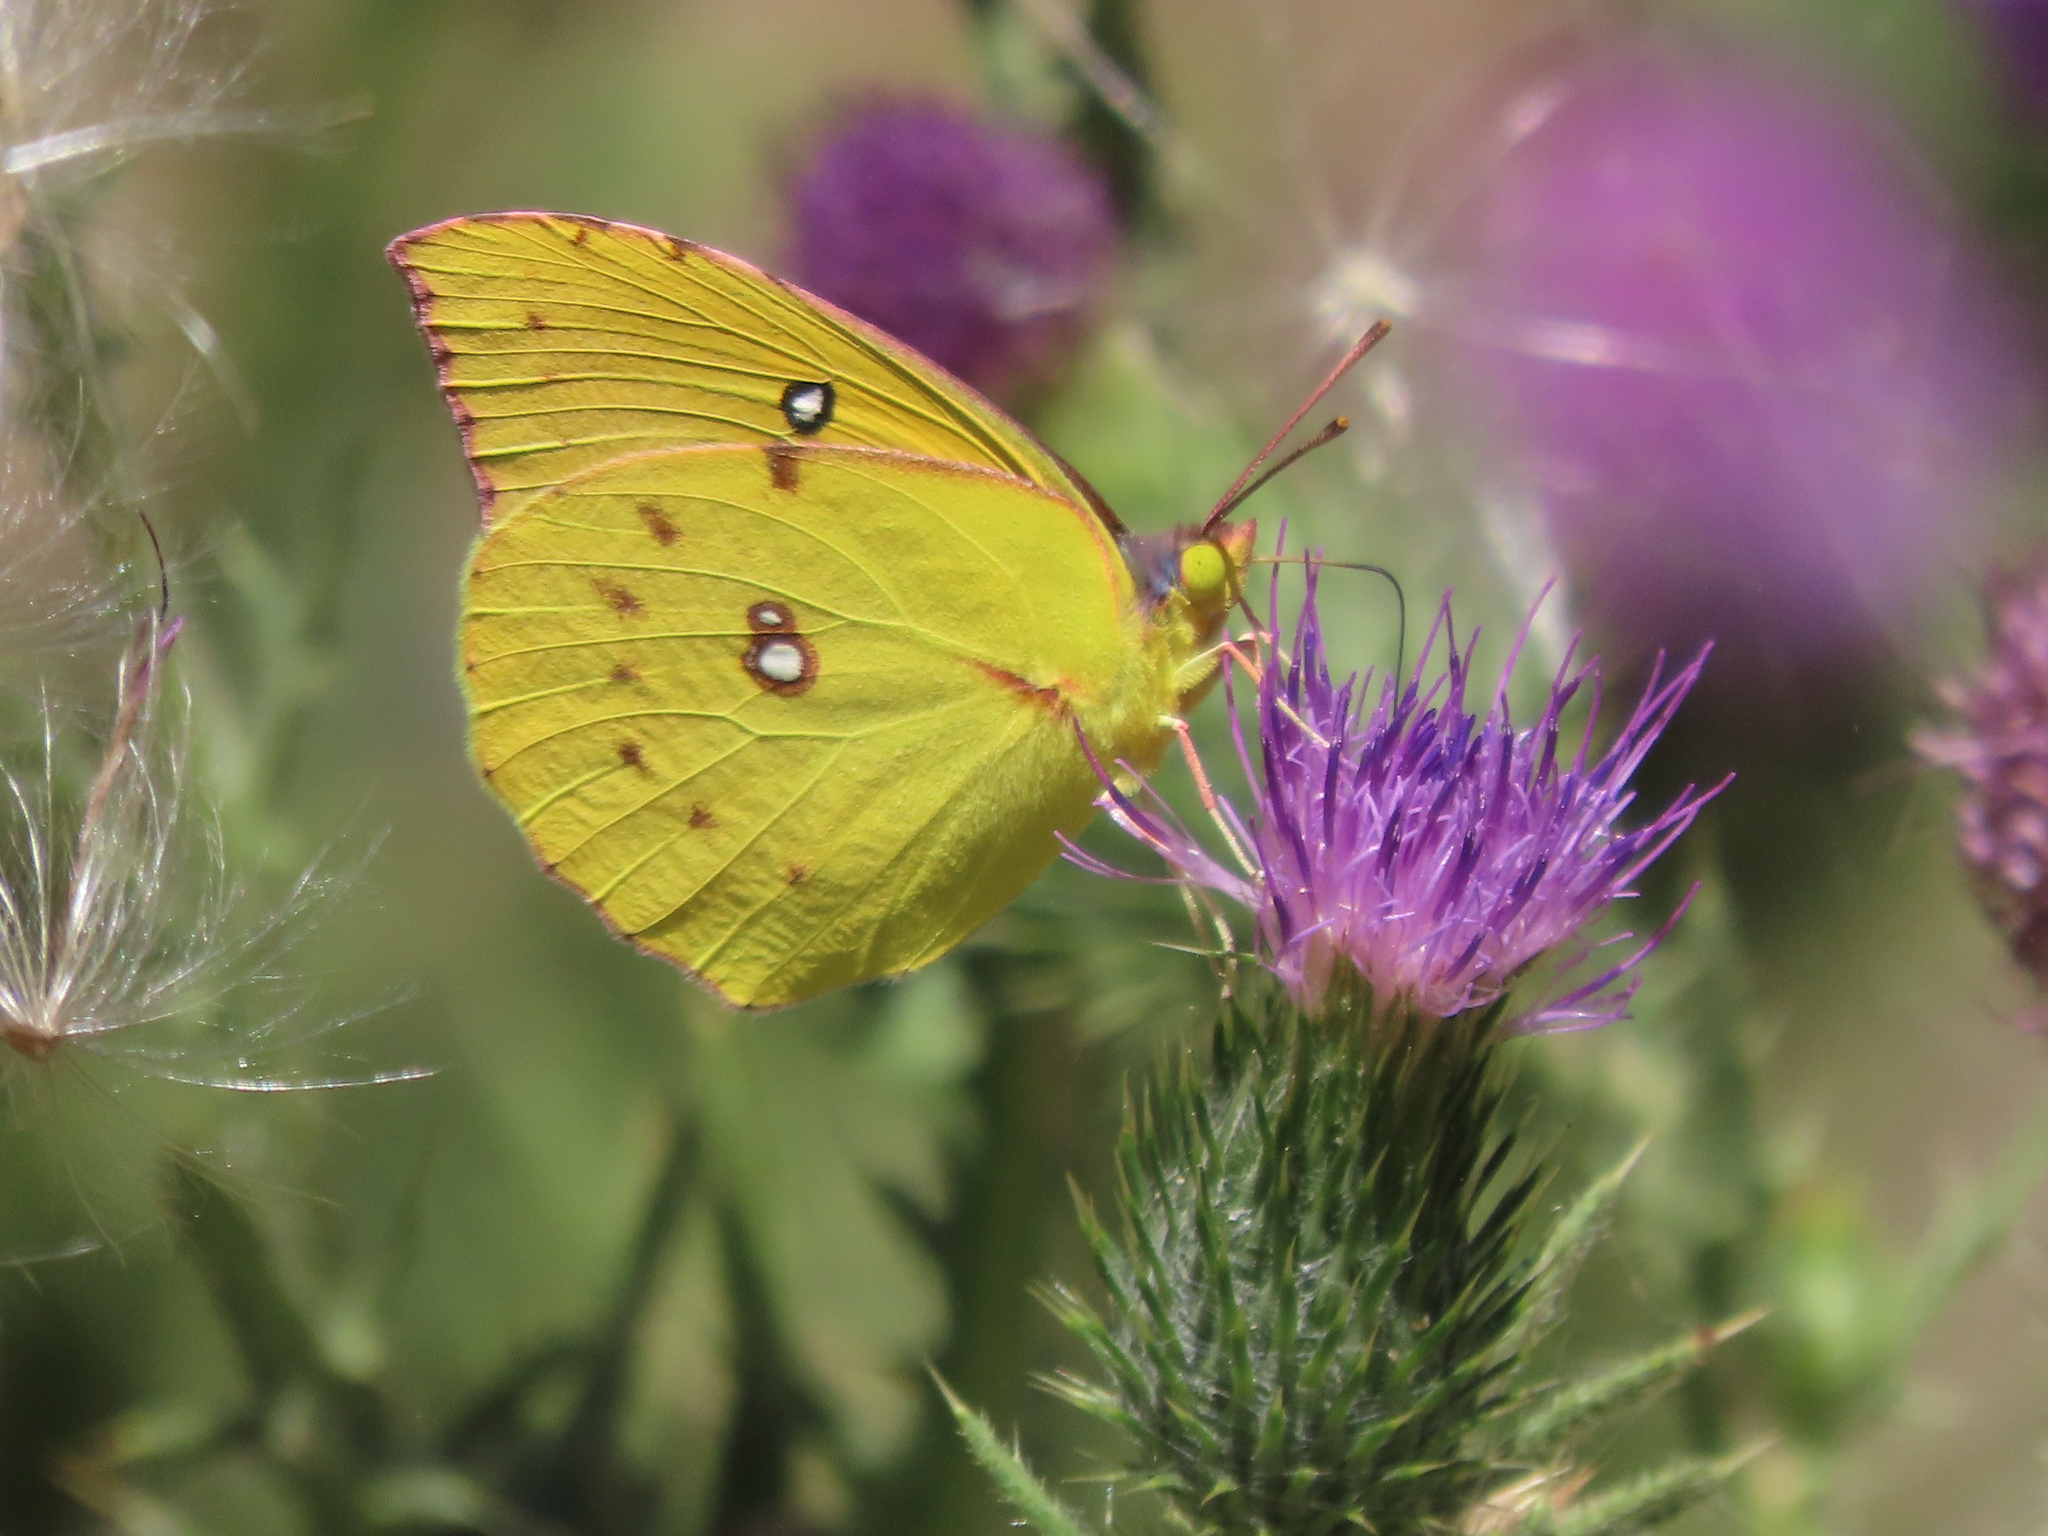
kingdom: Animalia
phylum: Arthropoda
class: Insecta
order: Lepidoptera
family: Pieridae
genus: Zerene
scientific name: Zerene eurydice
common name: California dogface
